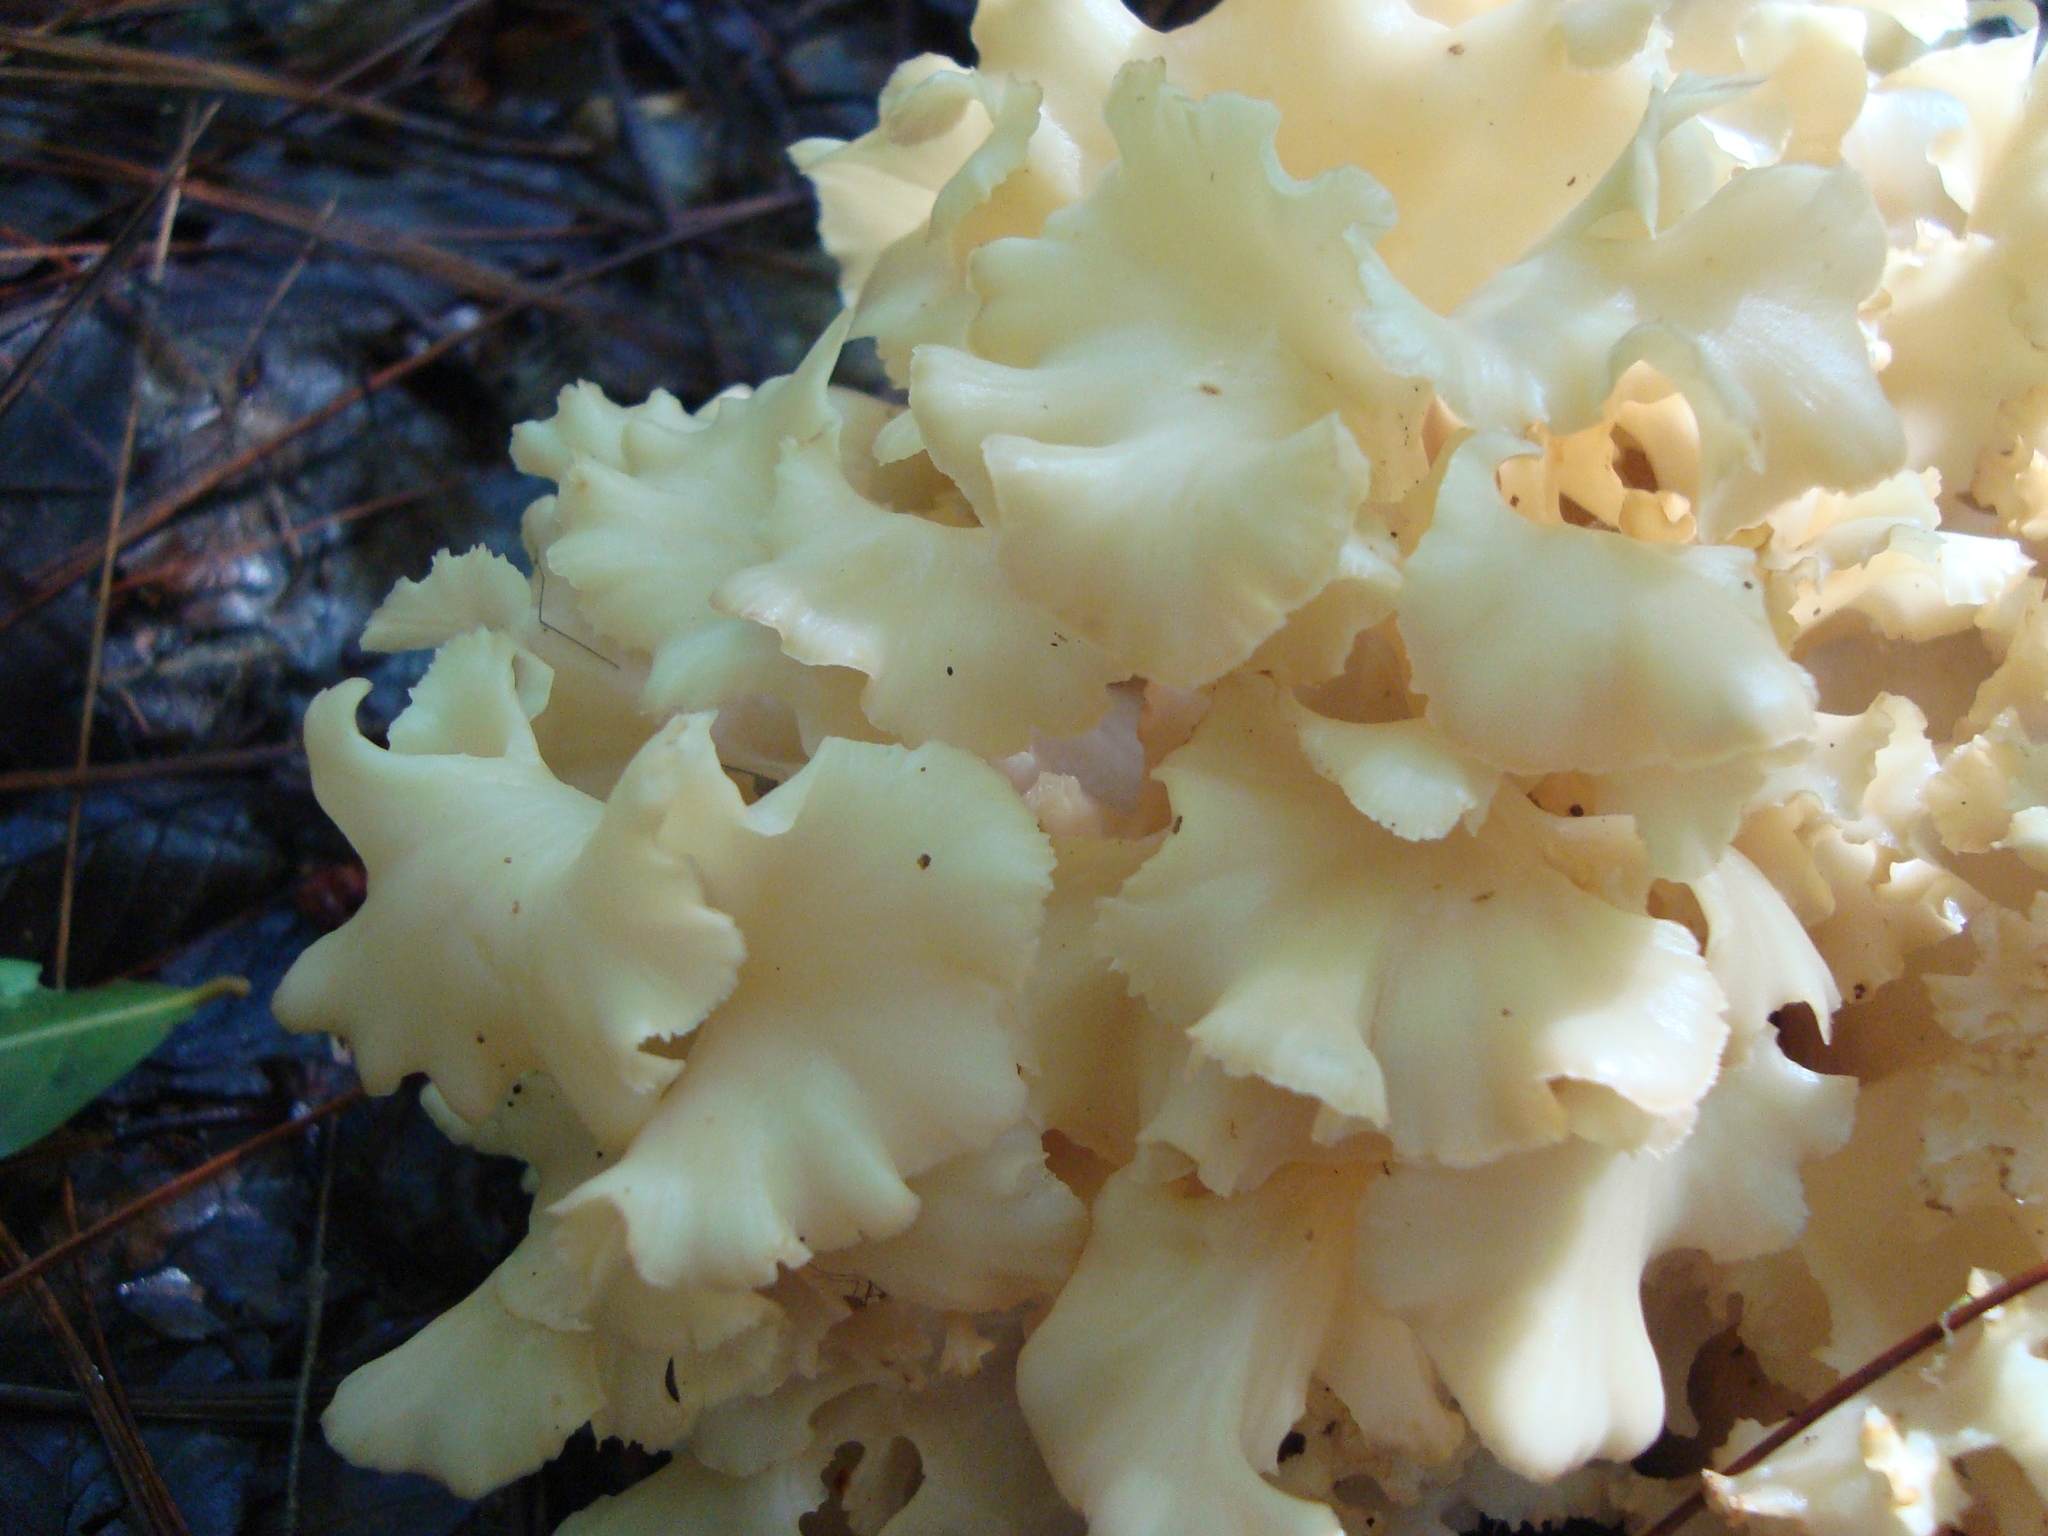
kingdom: Fungi
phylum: Basidiomycota
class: Agaricomycetes
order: Polyporales
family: Sparassidaceae
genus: Sparassis
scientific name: Sparassis radicata
